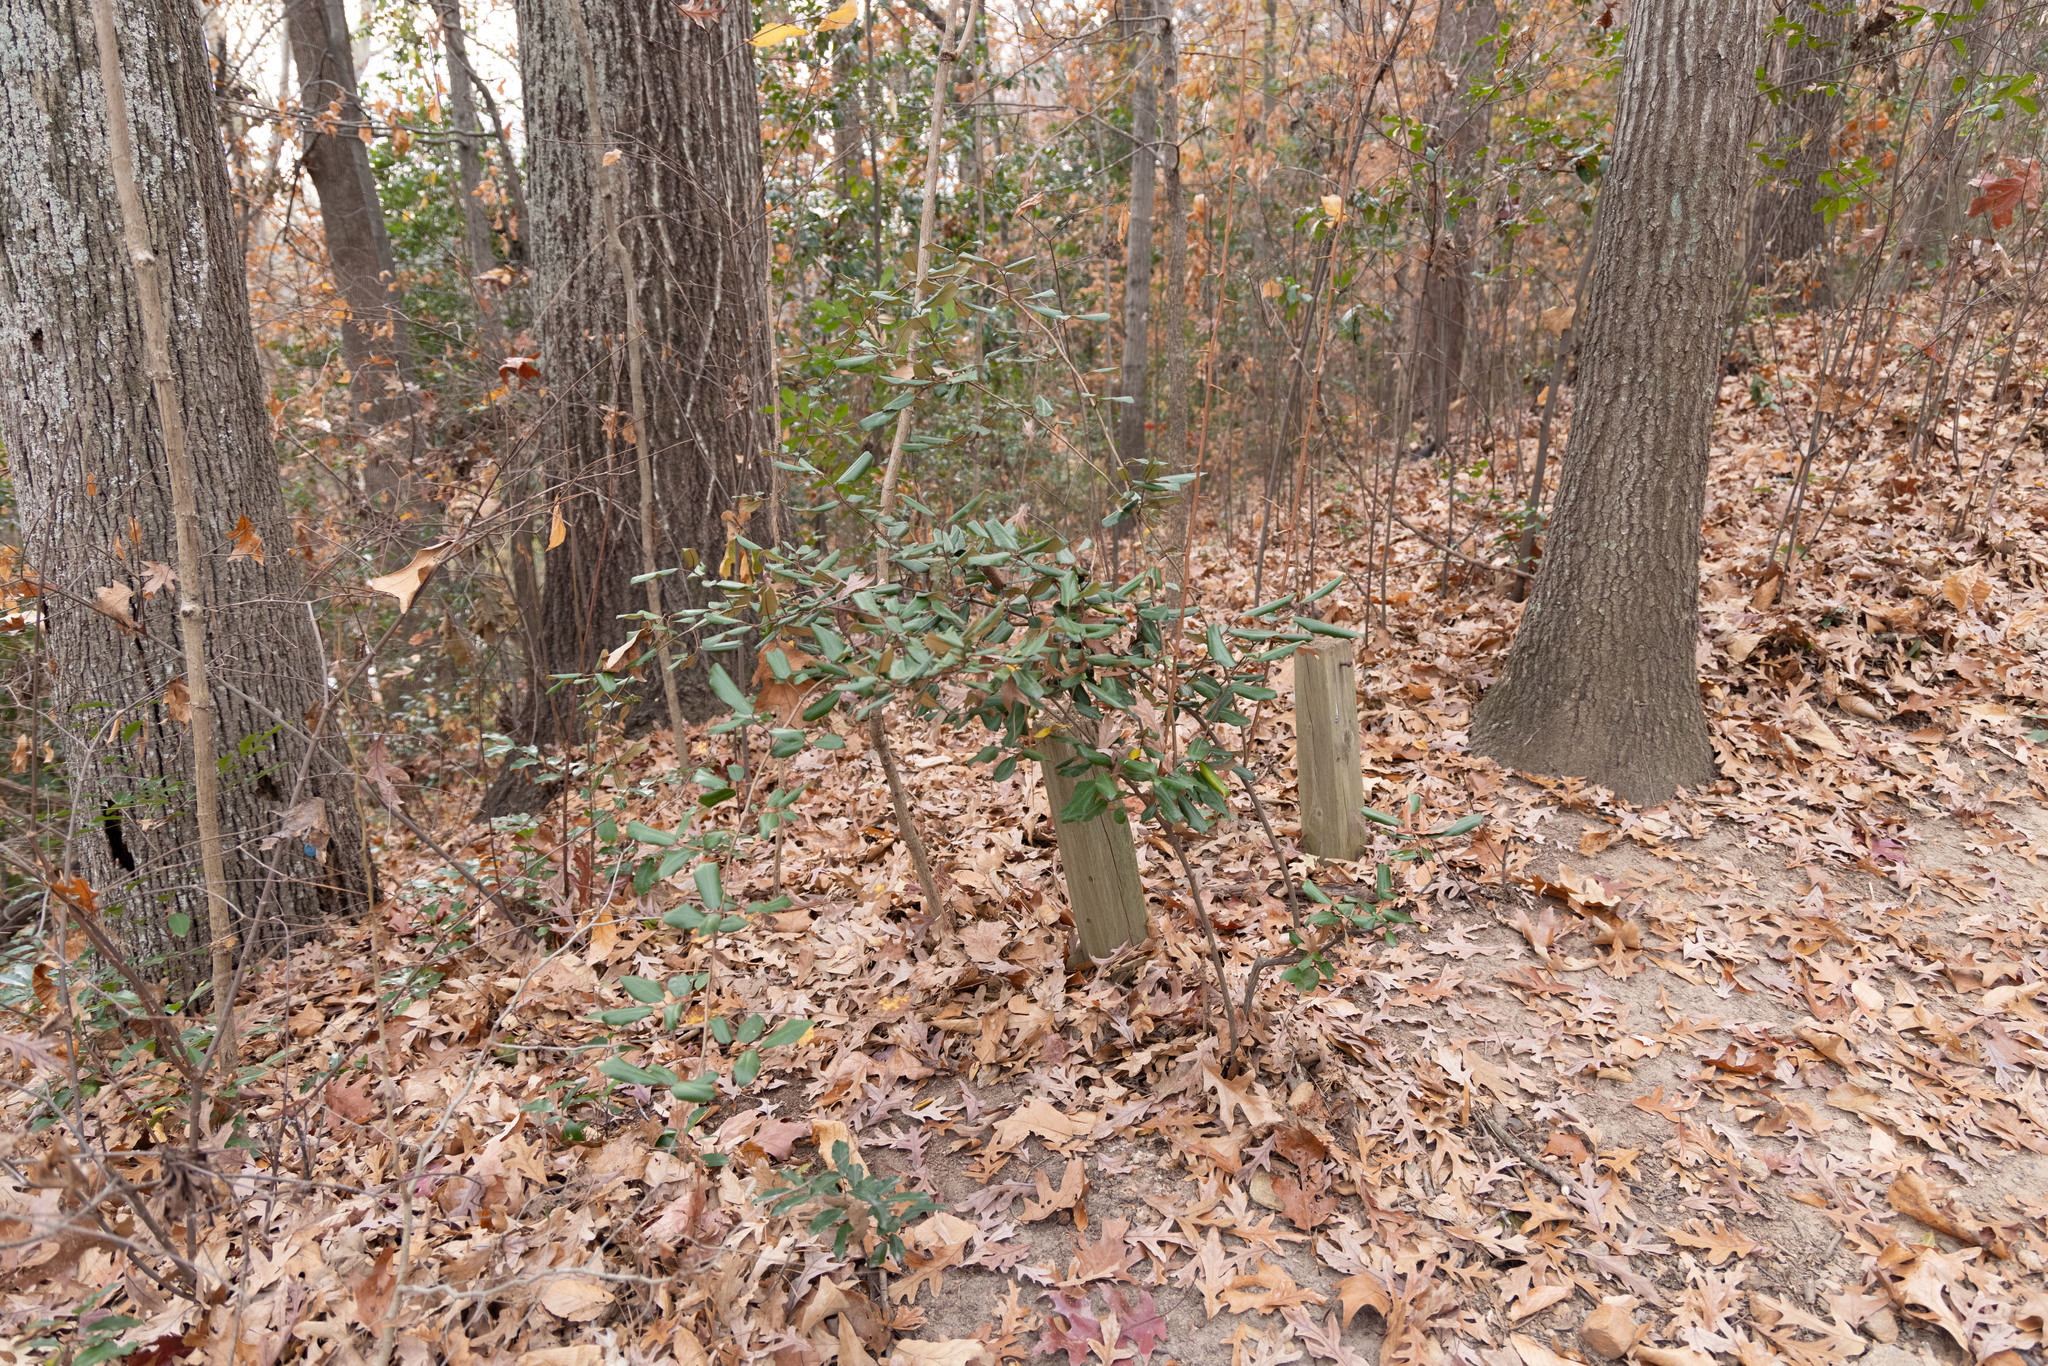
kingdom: Plantae
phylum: Tracheophyta
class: Magnoliopsida
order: Rosales
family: Elaeagnaceae
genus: Elaeagnus
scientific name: Elaeagnus pungens
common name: Spiny oleaster
